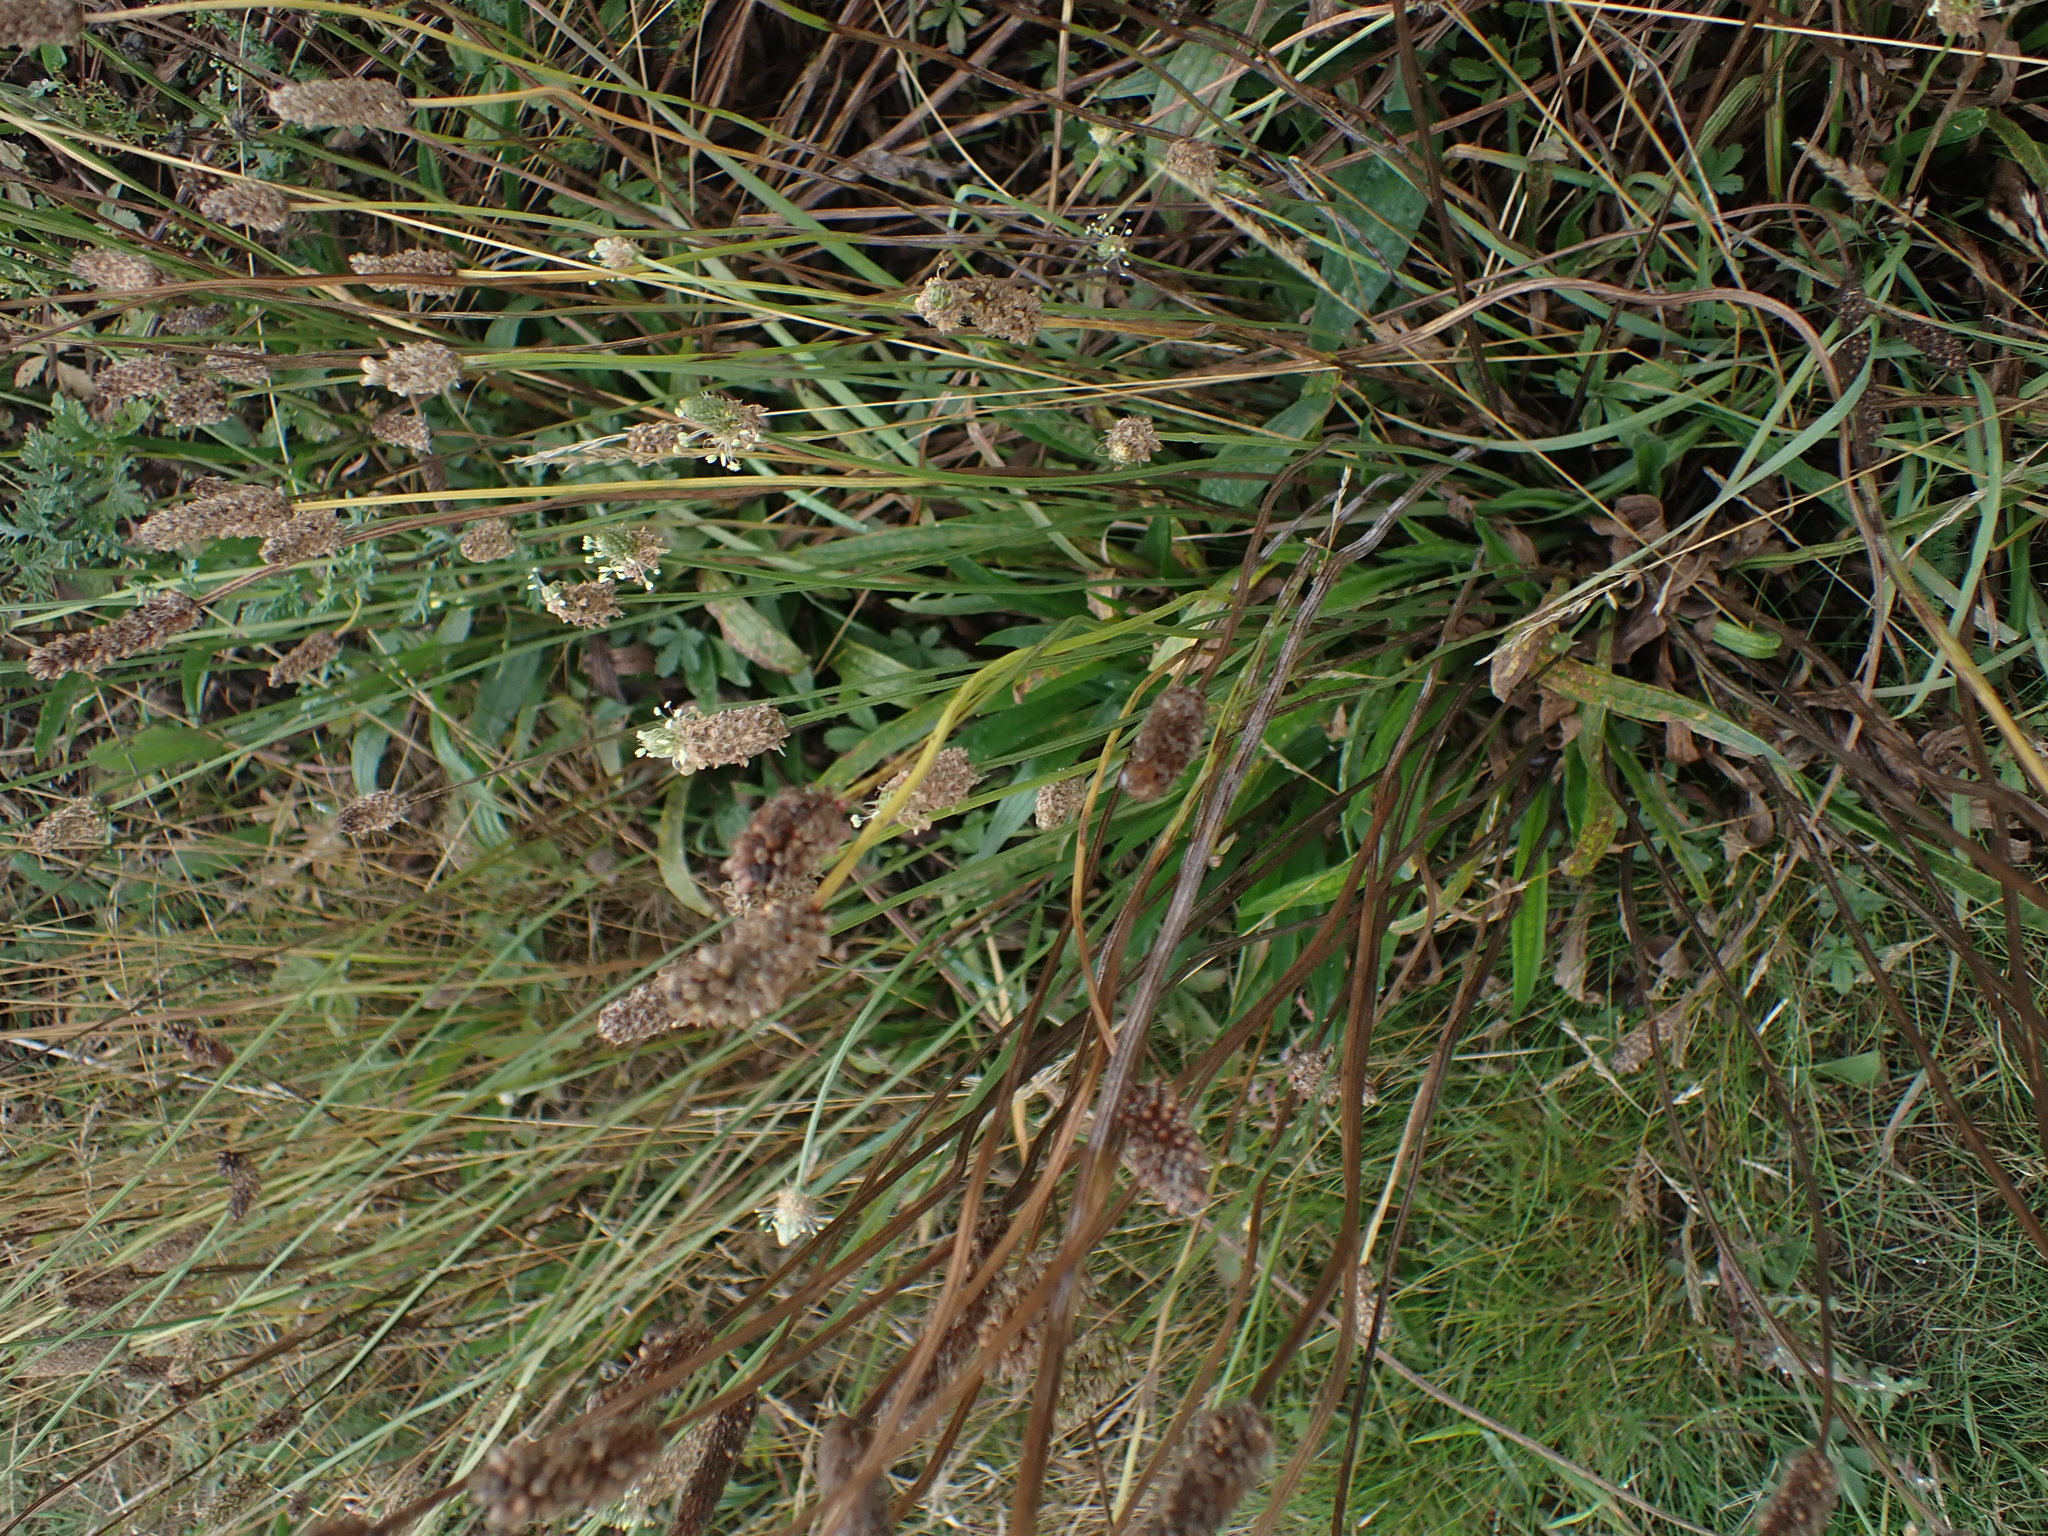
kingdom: Plantae
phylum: Tracheophyta
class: Magnoliopsida
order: Lamiales
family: Plantaginaceae
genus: Plantago
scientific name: Plantago lanceolata
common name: Ribwort plantain
